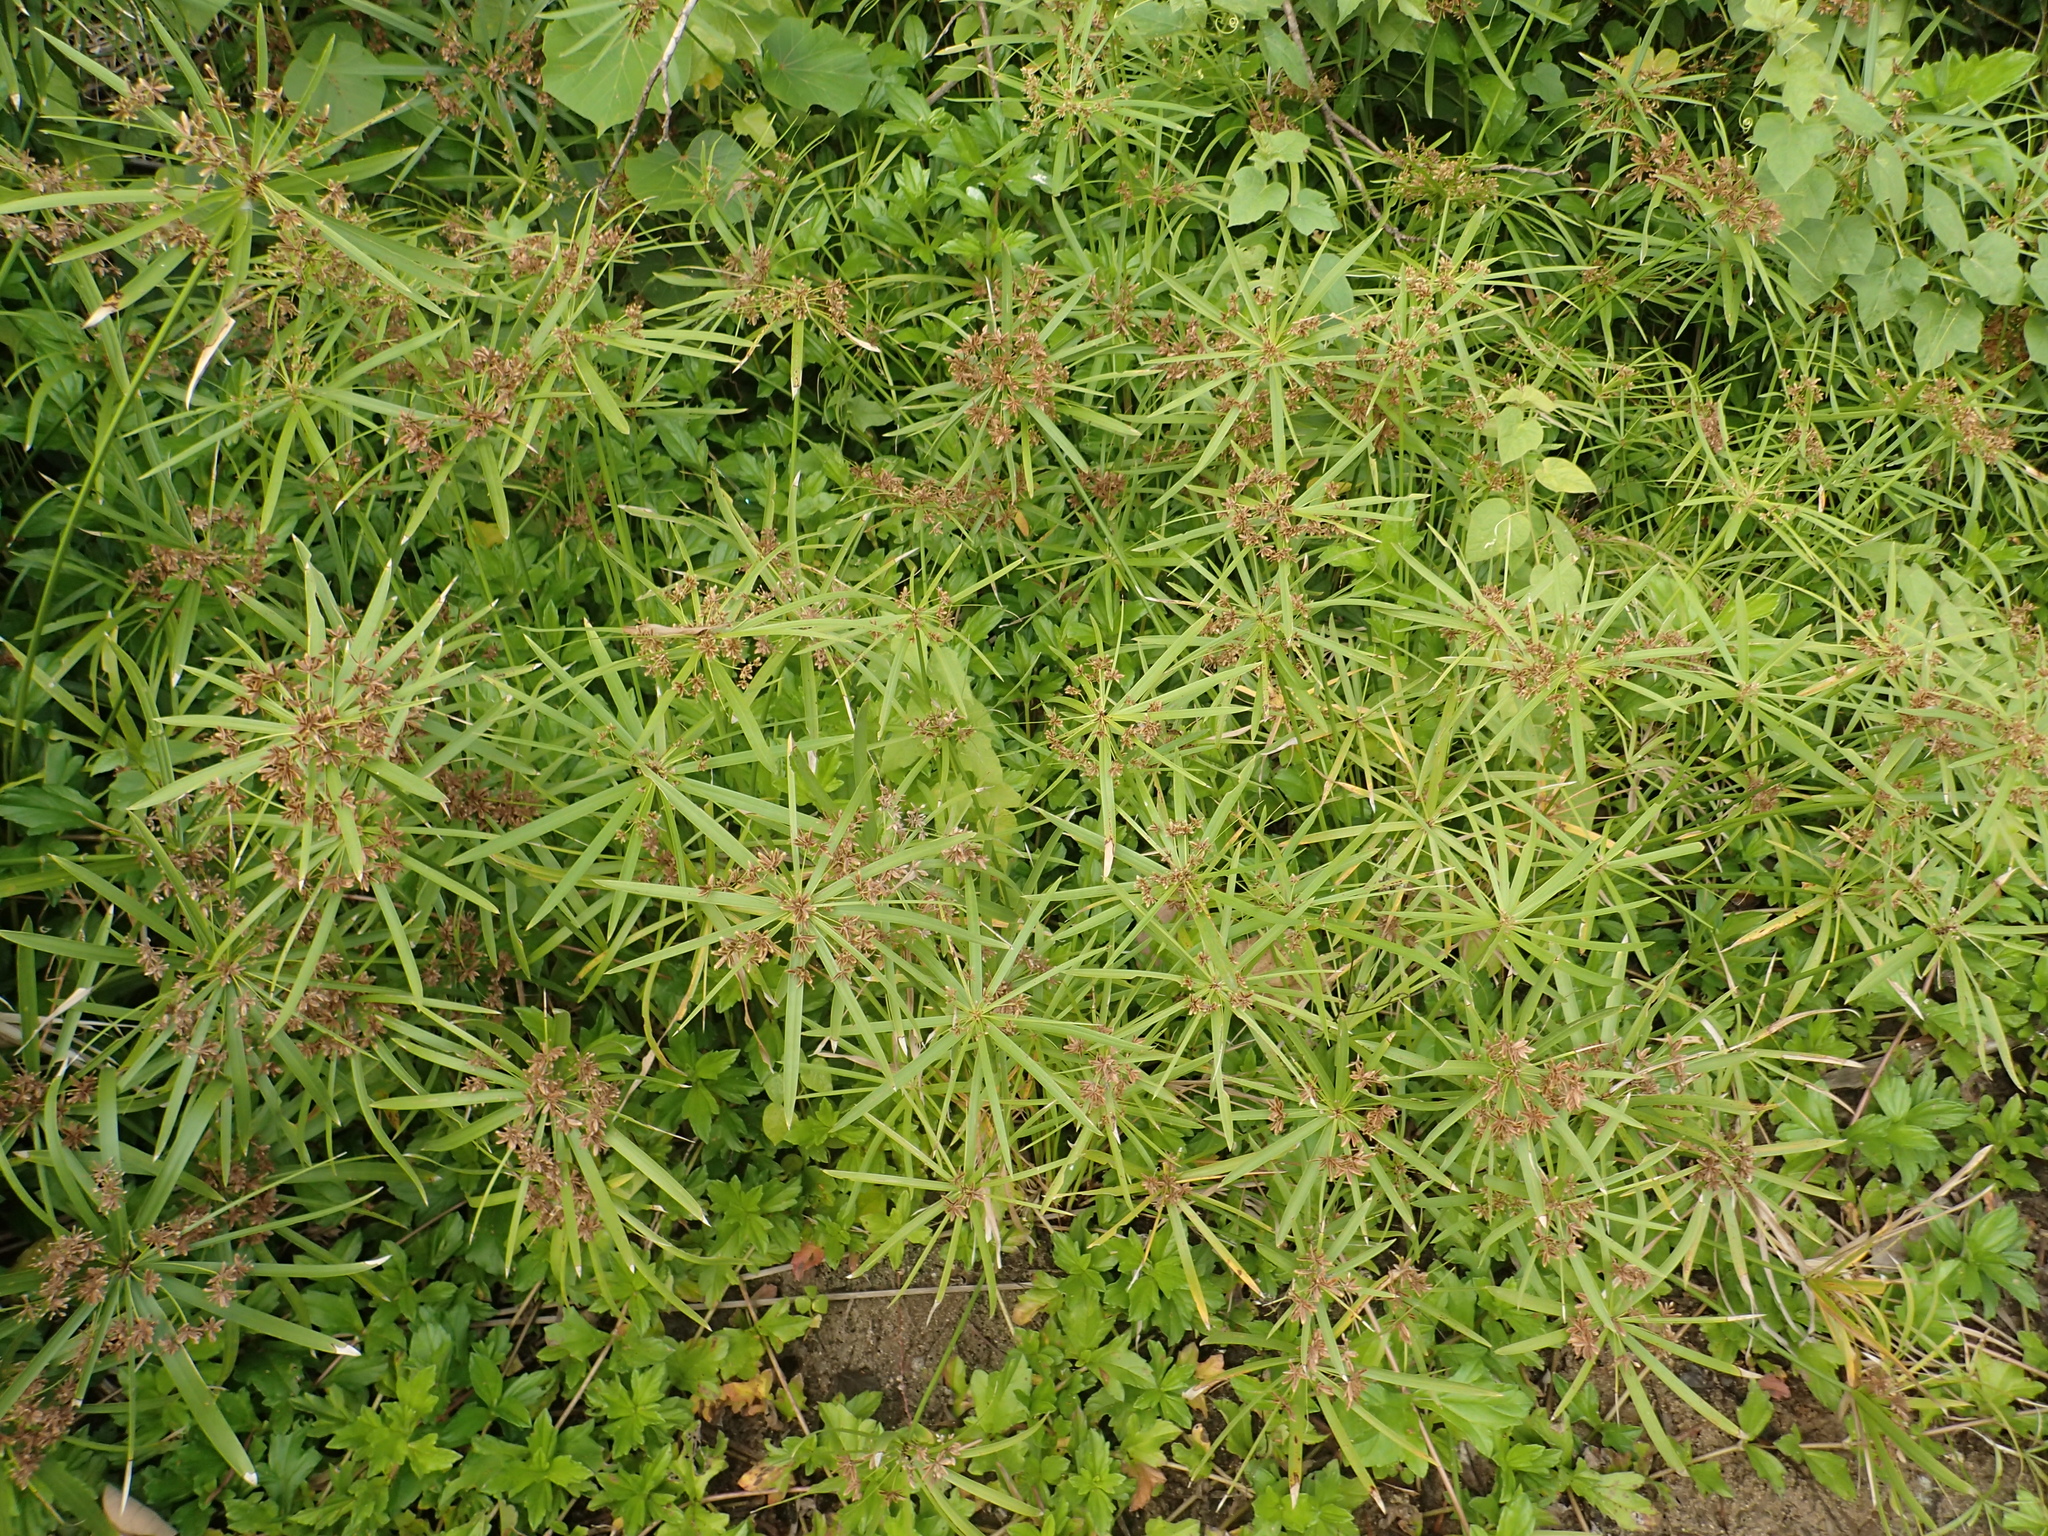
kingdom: Plantae
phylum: Tracheophyta
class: Liliopsida
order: Poales
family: Cyperaceae
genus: Cyperus
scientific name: Cyperus alternifolius
